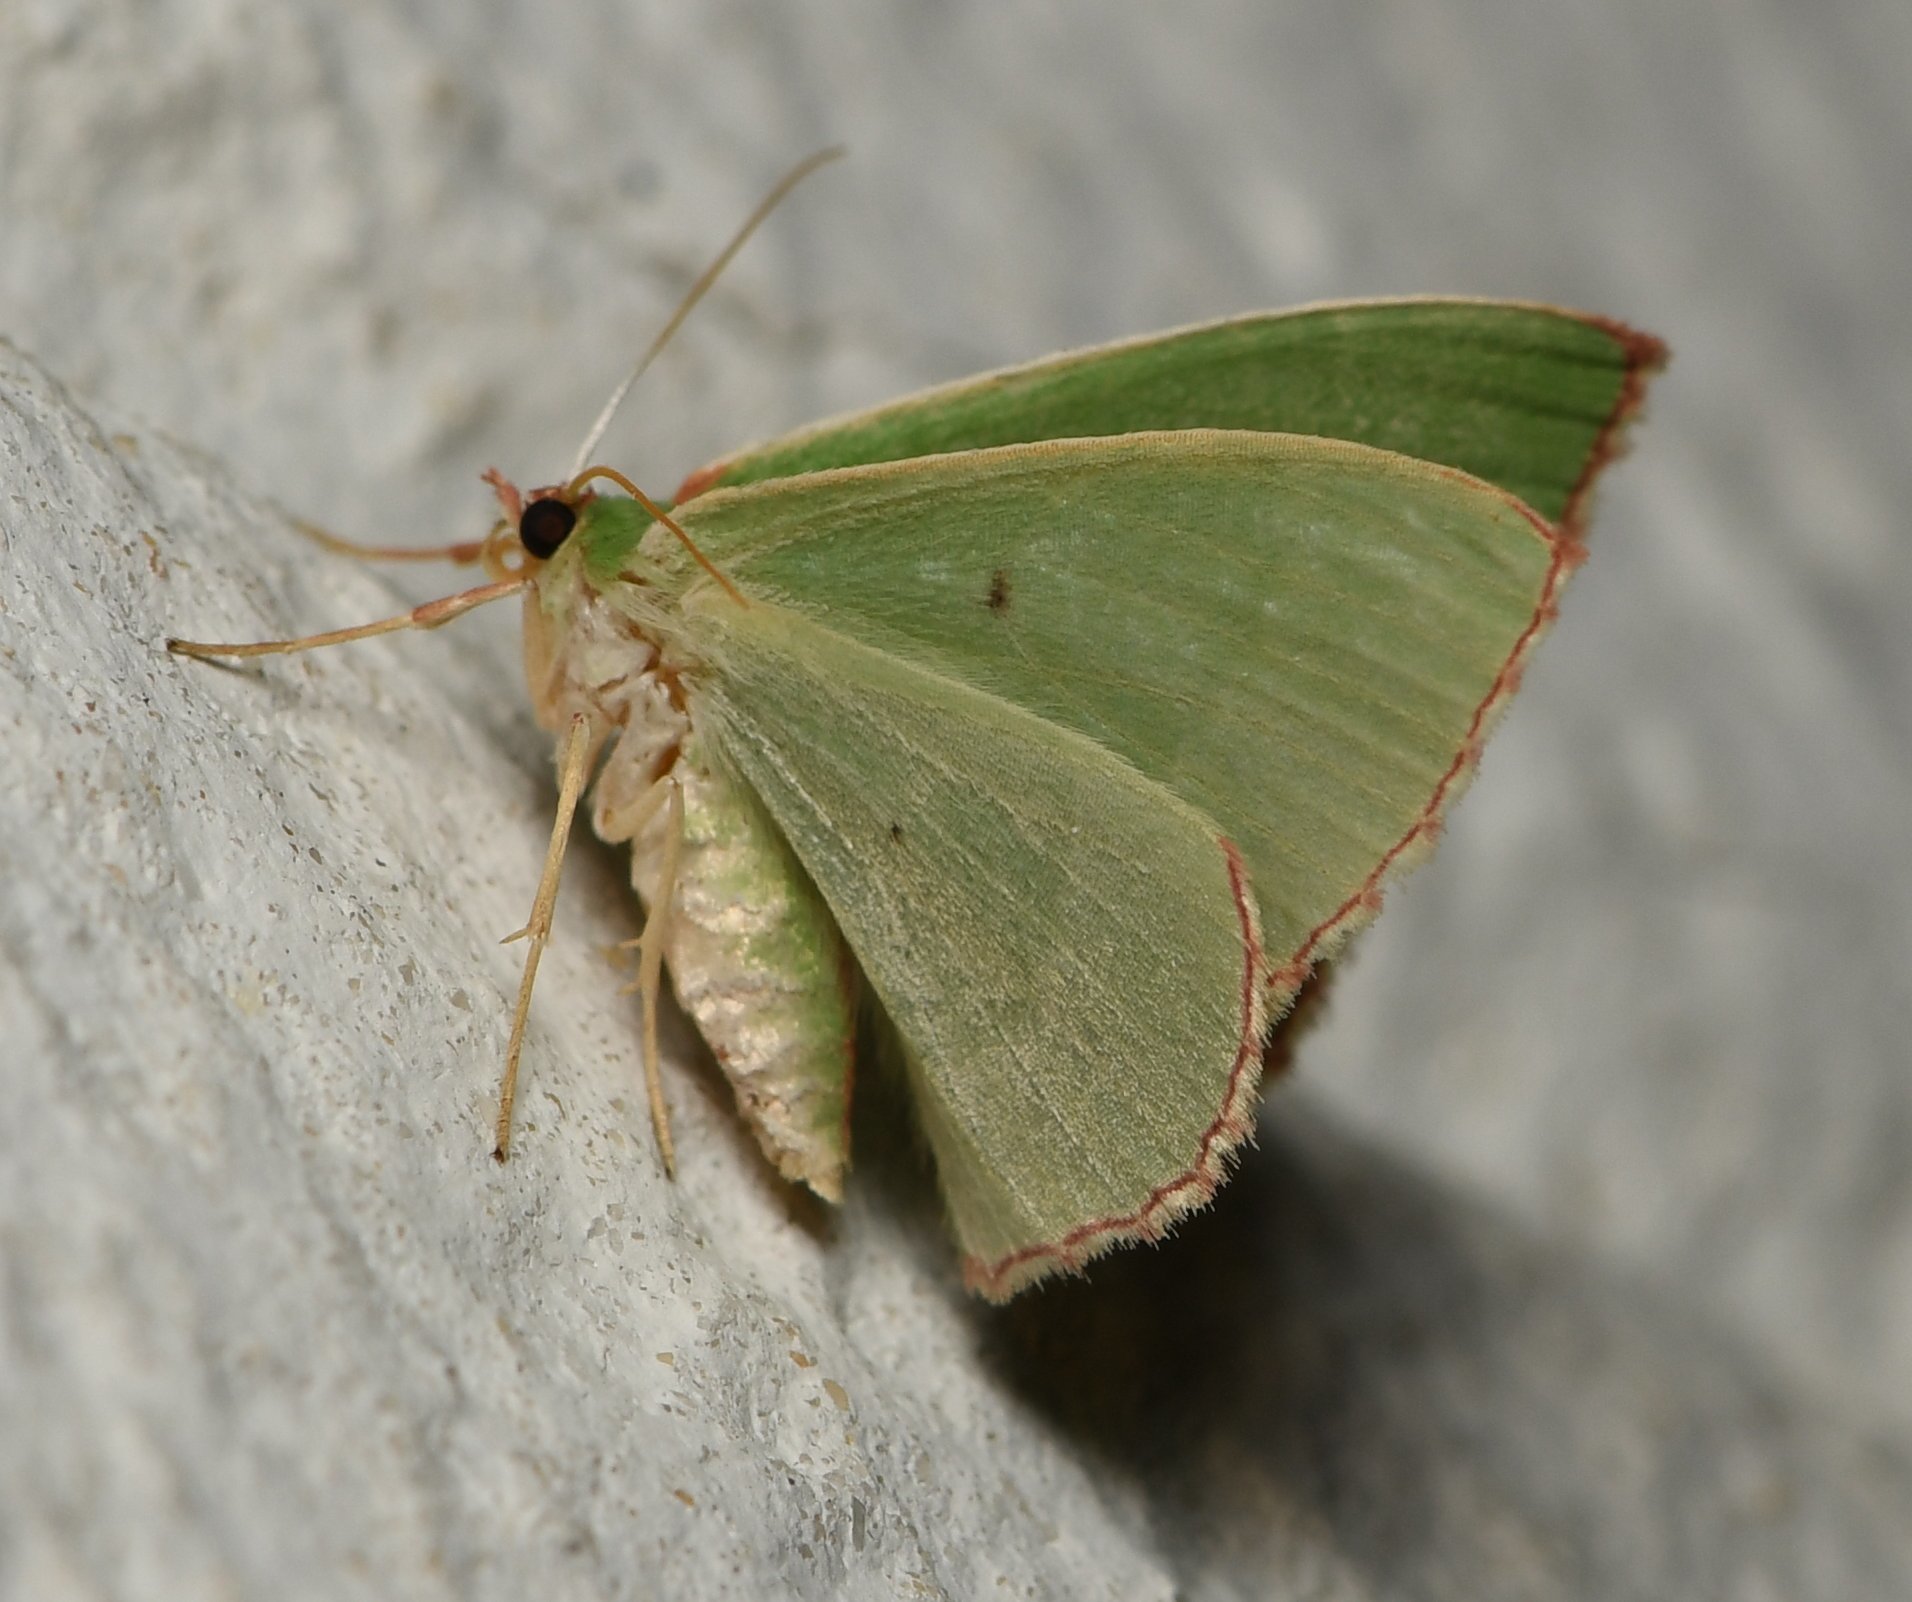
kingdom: Animalia
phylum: Arthropoda
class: Insecta
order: Lepidoptera
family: Geometridae
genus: Nemoria
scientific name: Nemoria lixaria
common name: Red-bordered emerald
